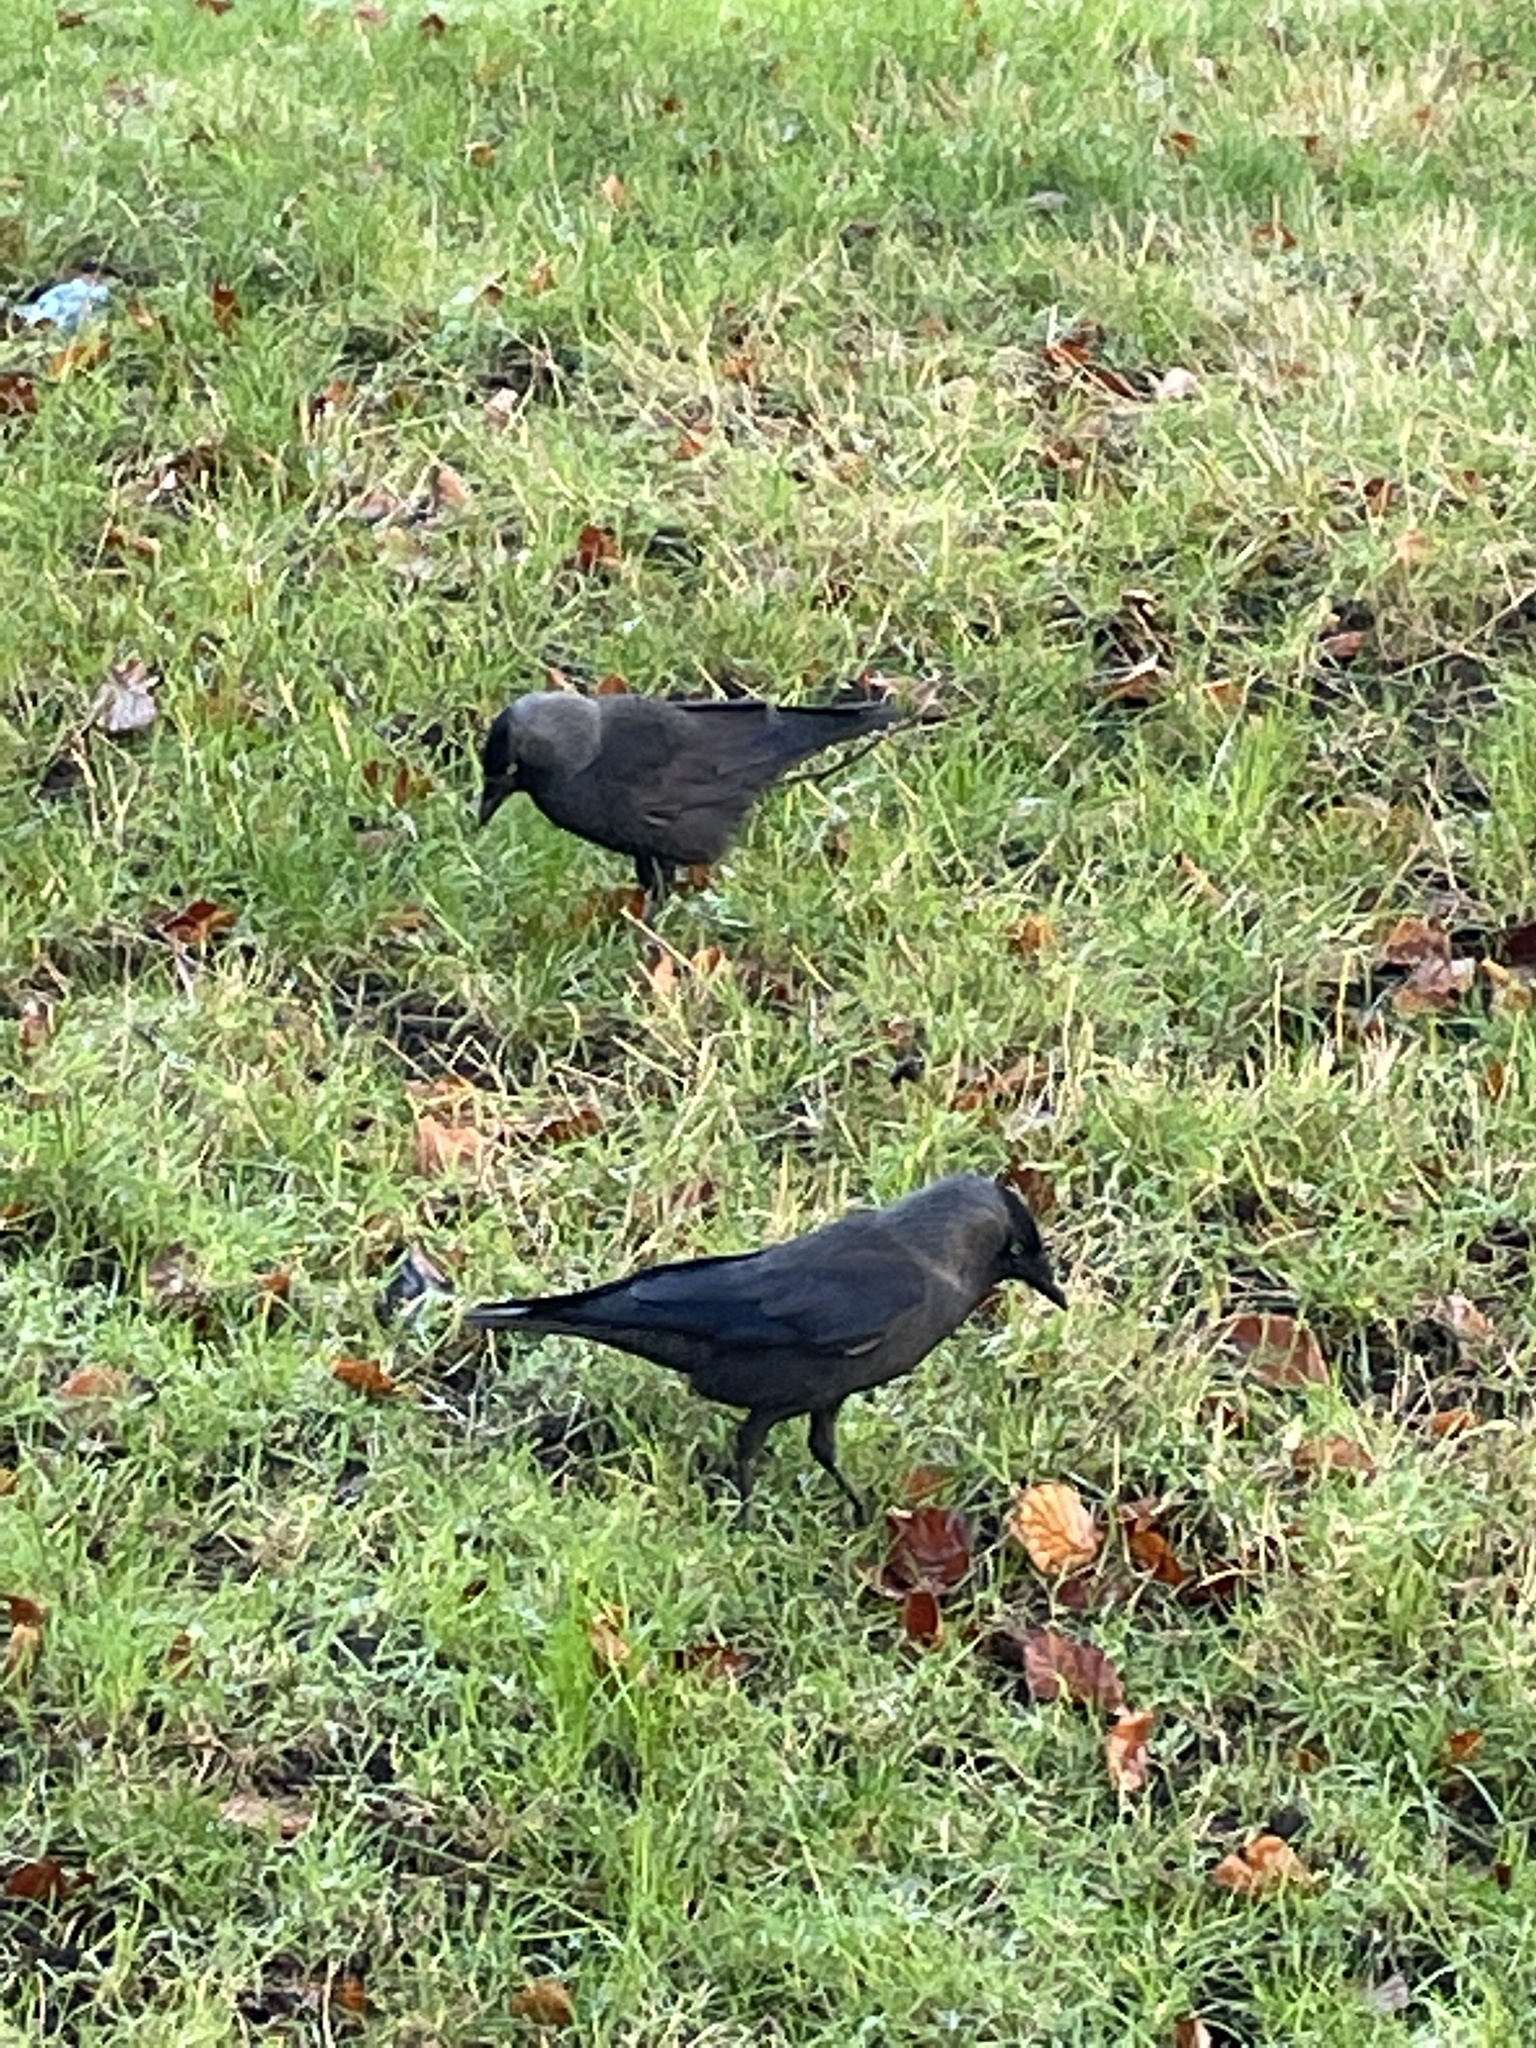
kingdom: Animalia
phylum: Chordata
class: Aves
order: Passeriformes
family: Corvidae
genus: Coloeus
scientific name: Coloeus monedula
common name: Western jackdaw
